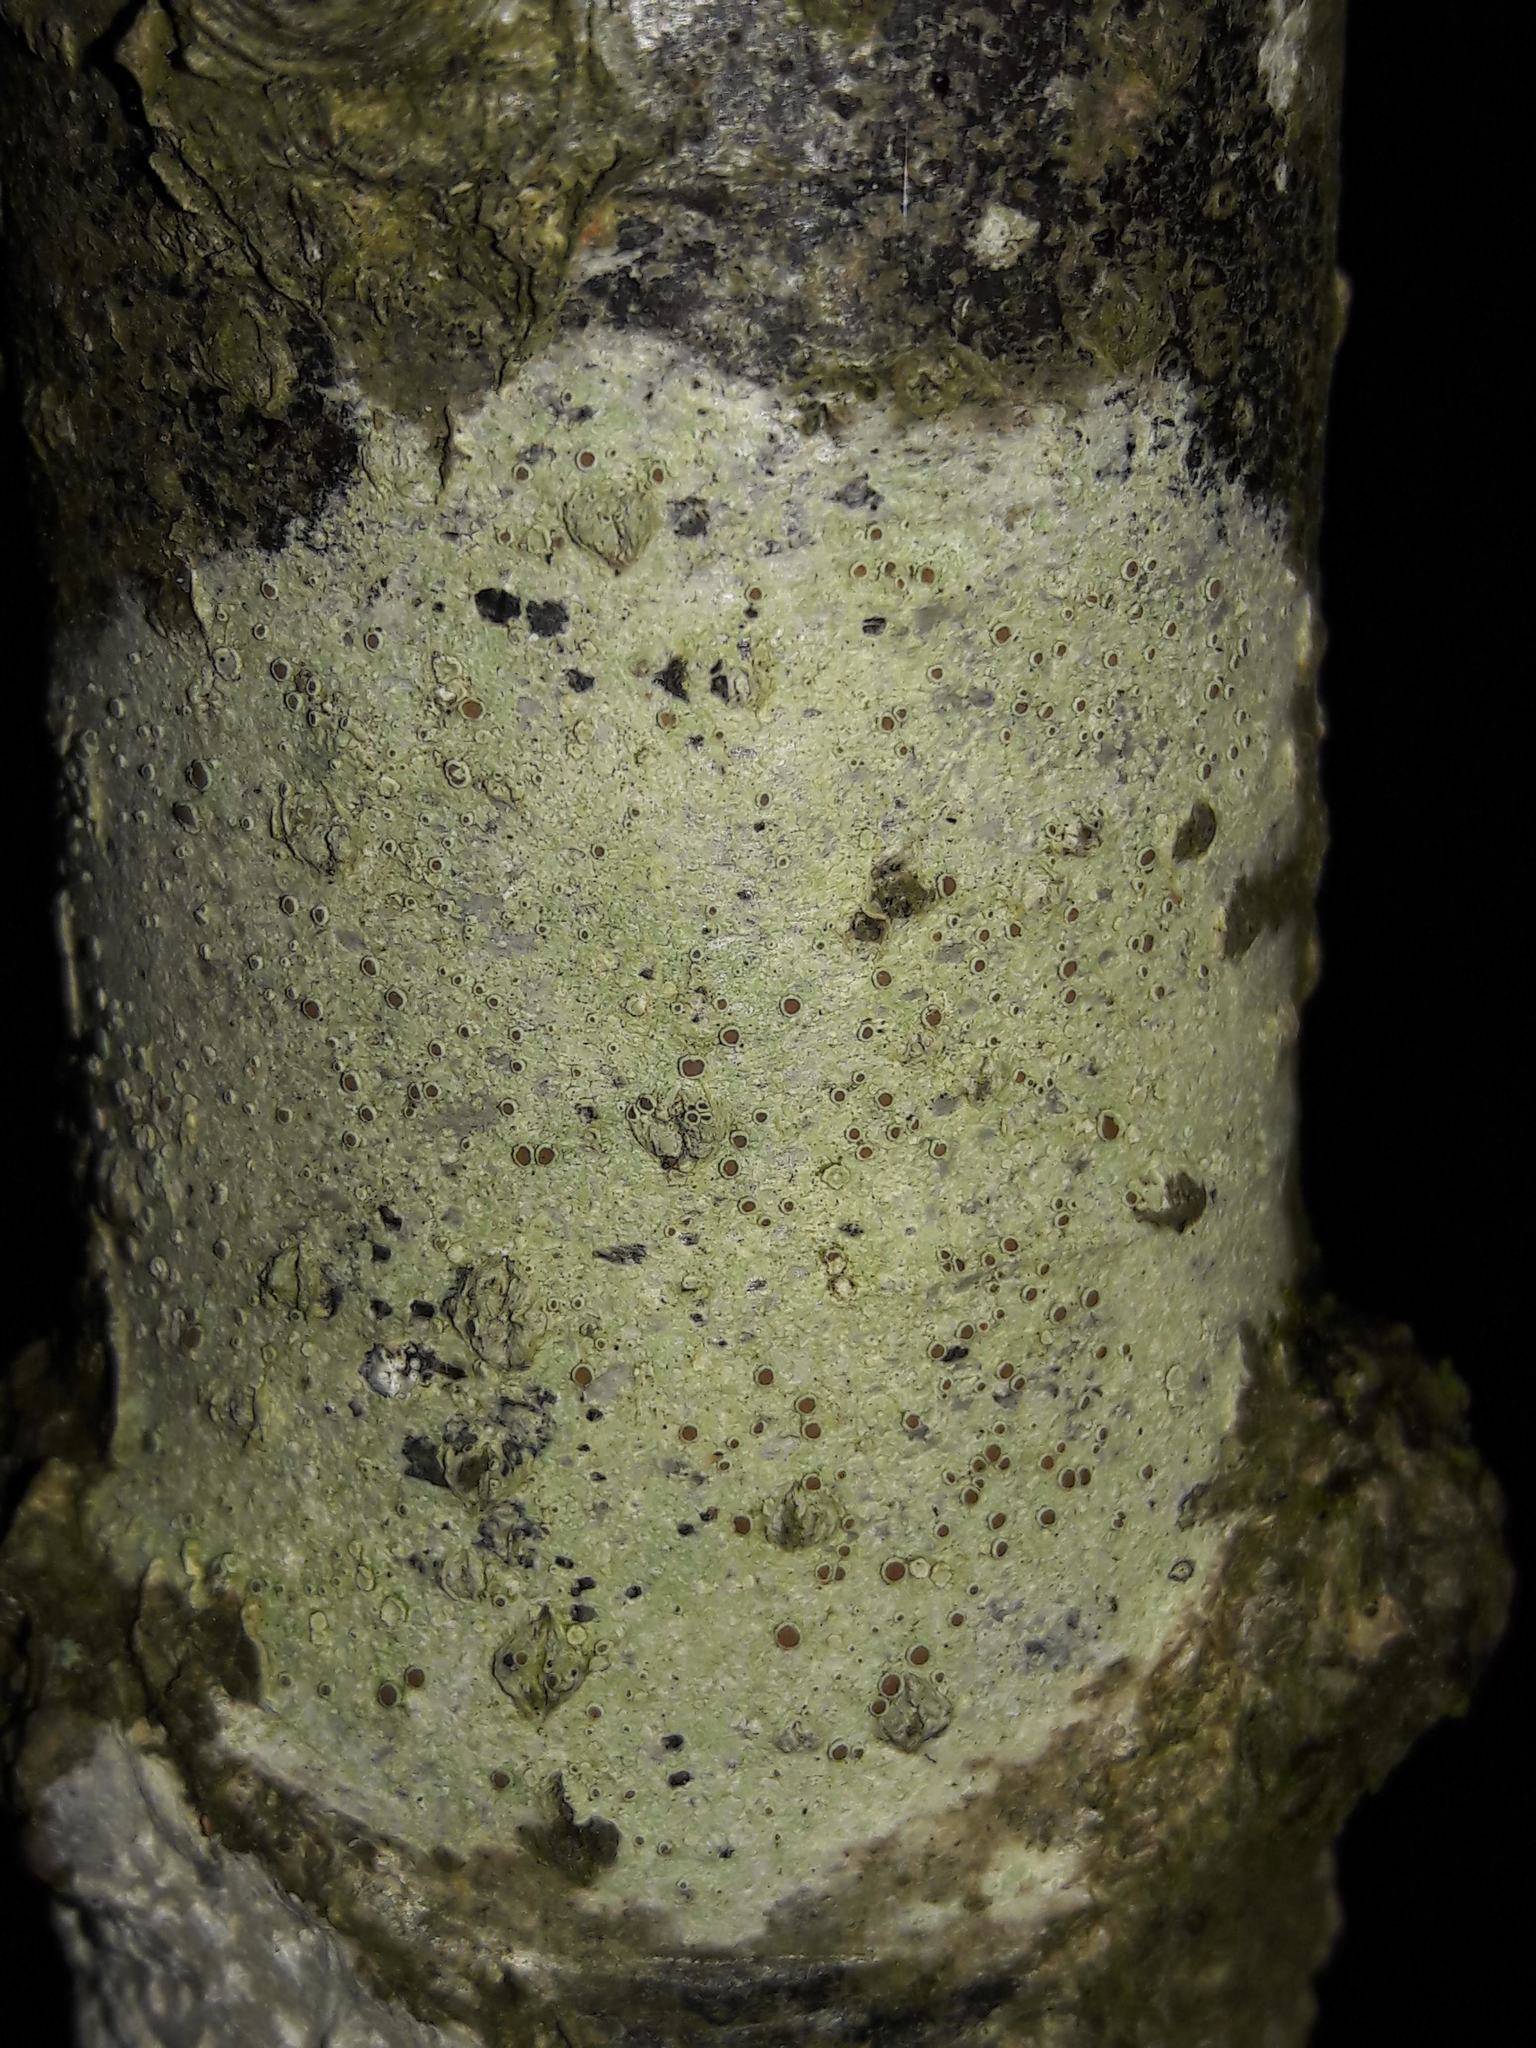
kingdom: Fungi
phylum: Ascomycota
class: Lecanoromycetes
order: Lecanorales
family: Lecanoraceae
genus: Lecanora
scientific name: Lecanora
